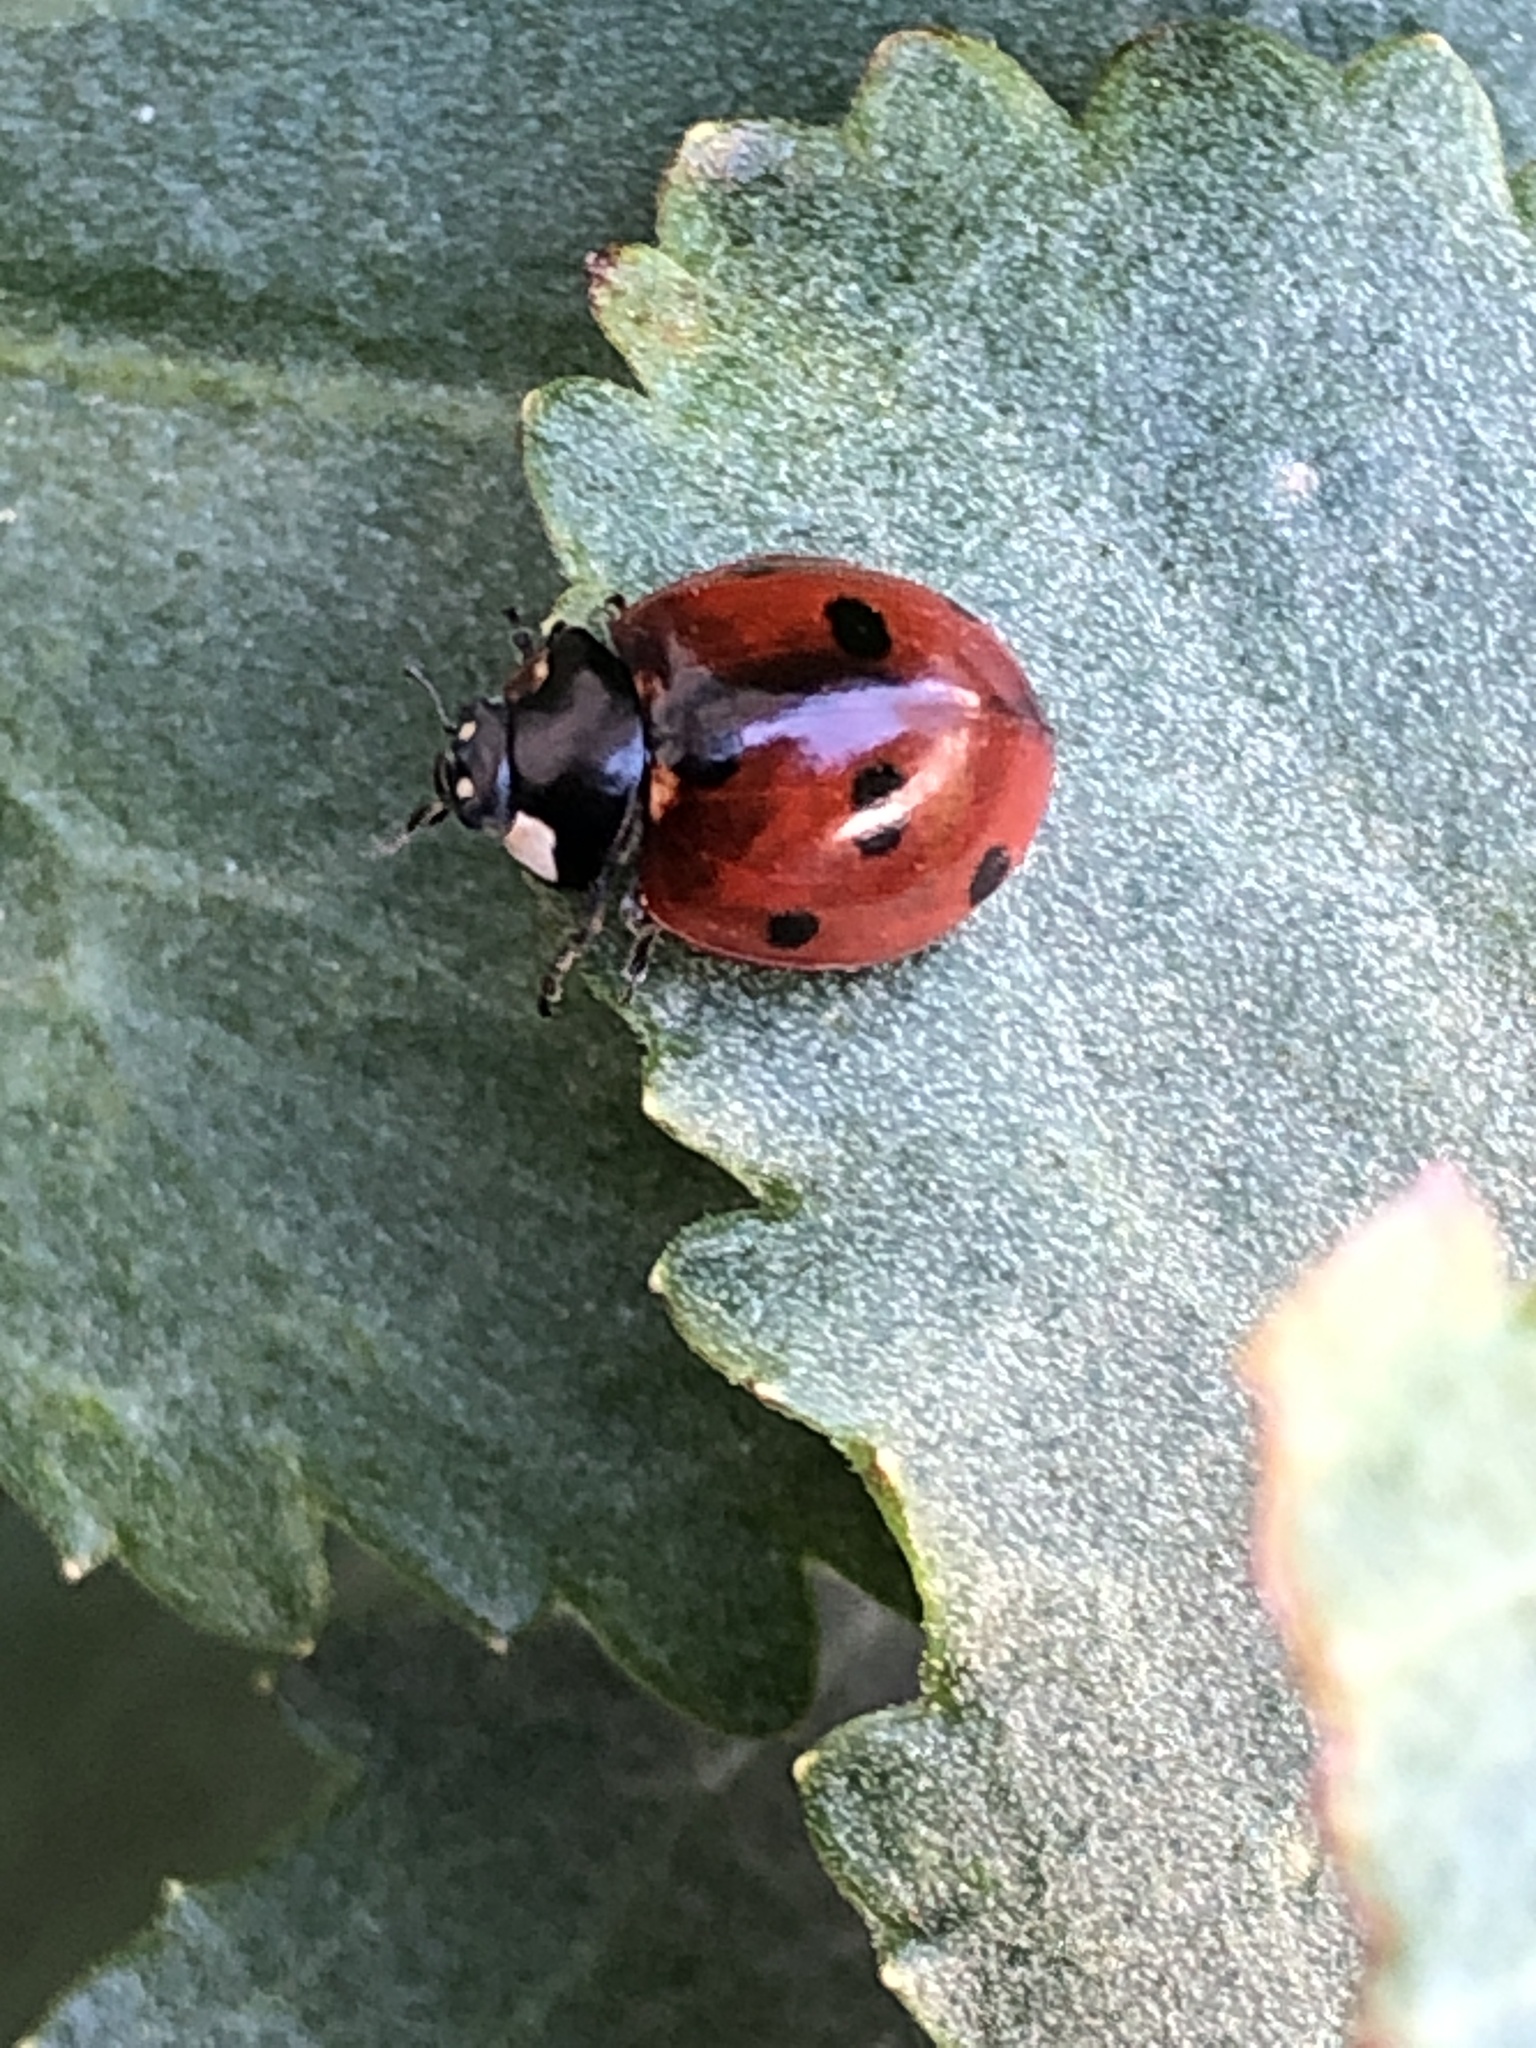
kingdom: Animalia
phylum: Arthropoda
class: Insecta
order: Coleoptera
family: Coccinellidae
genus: Coccinella
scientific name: Coccinella septempunctata
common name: Sevenspotted lady beetle
